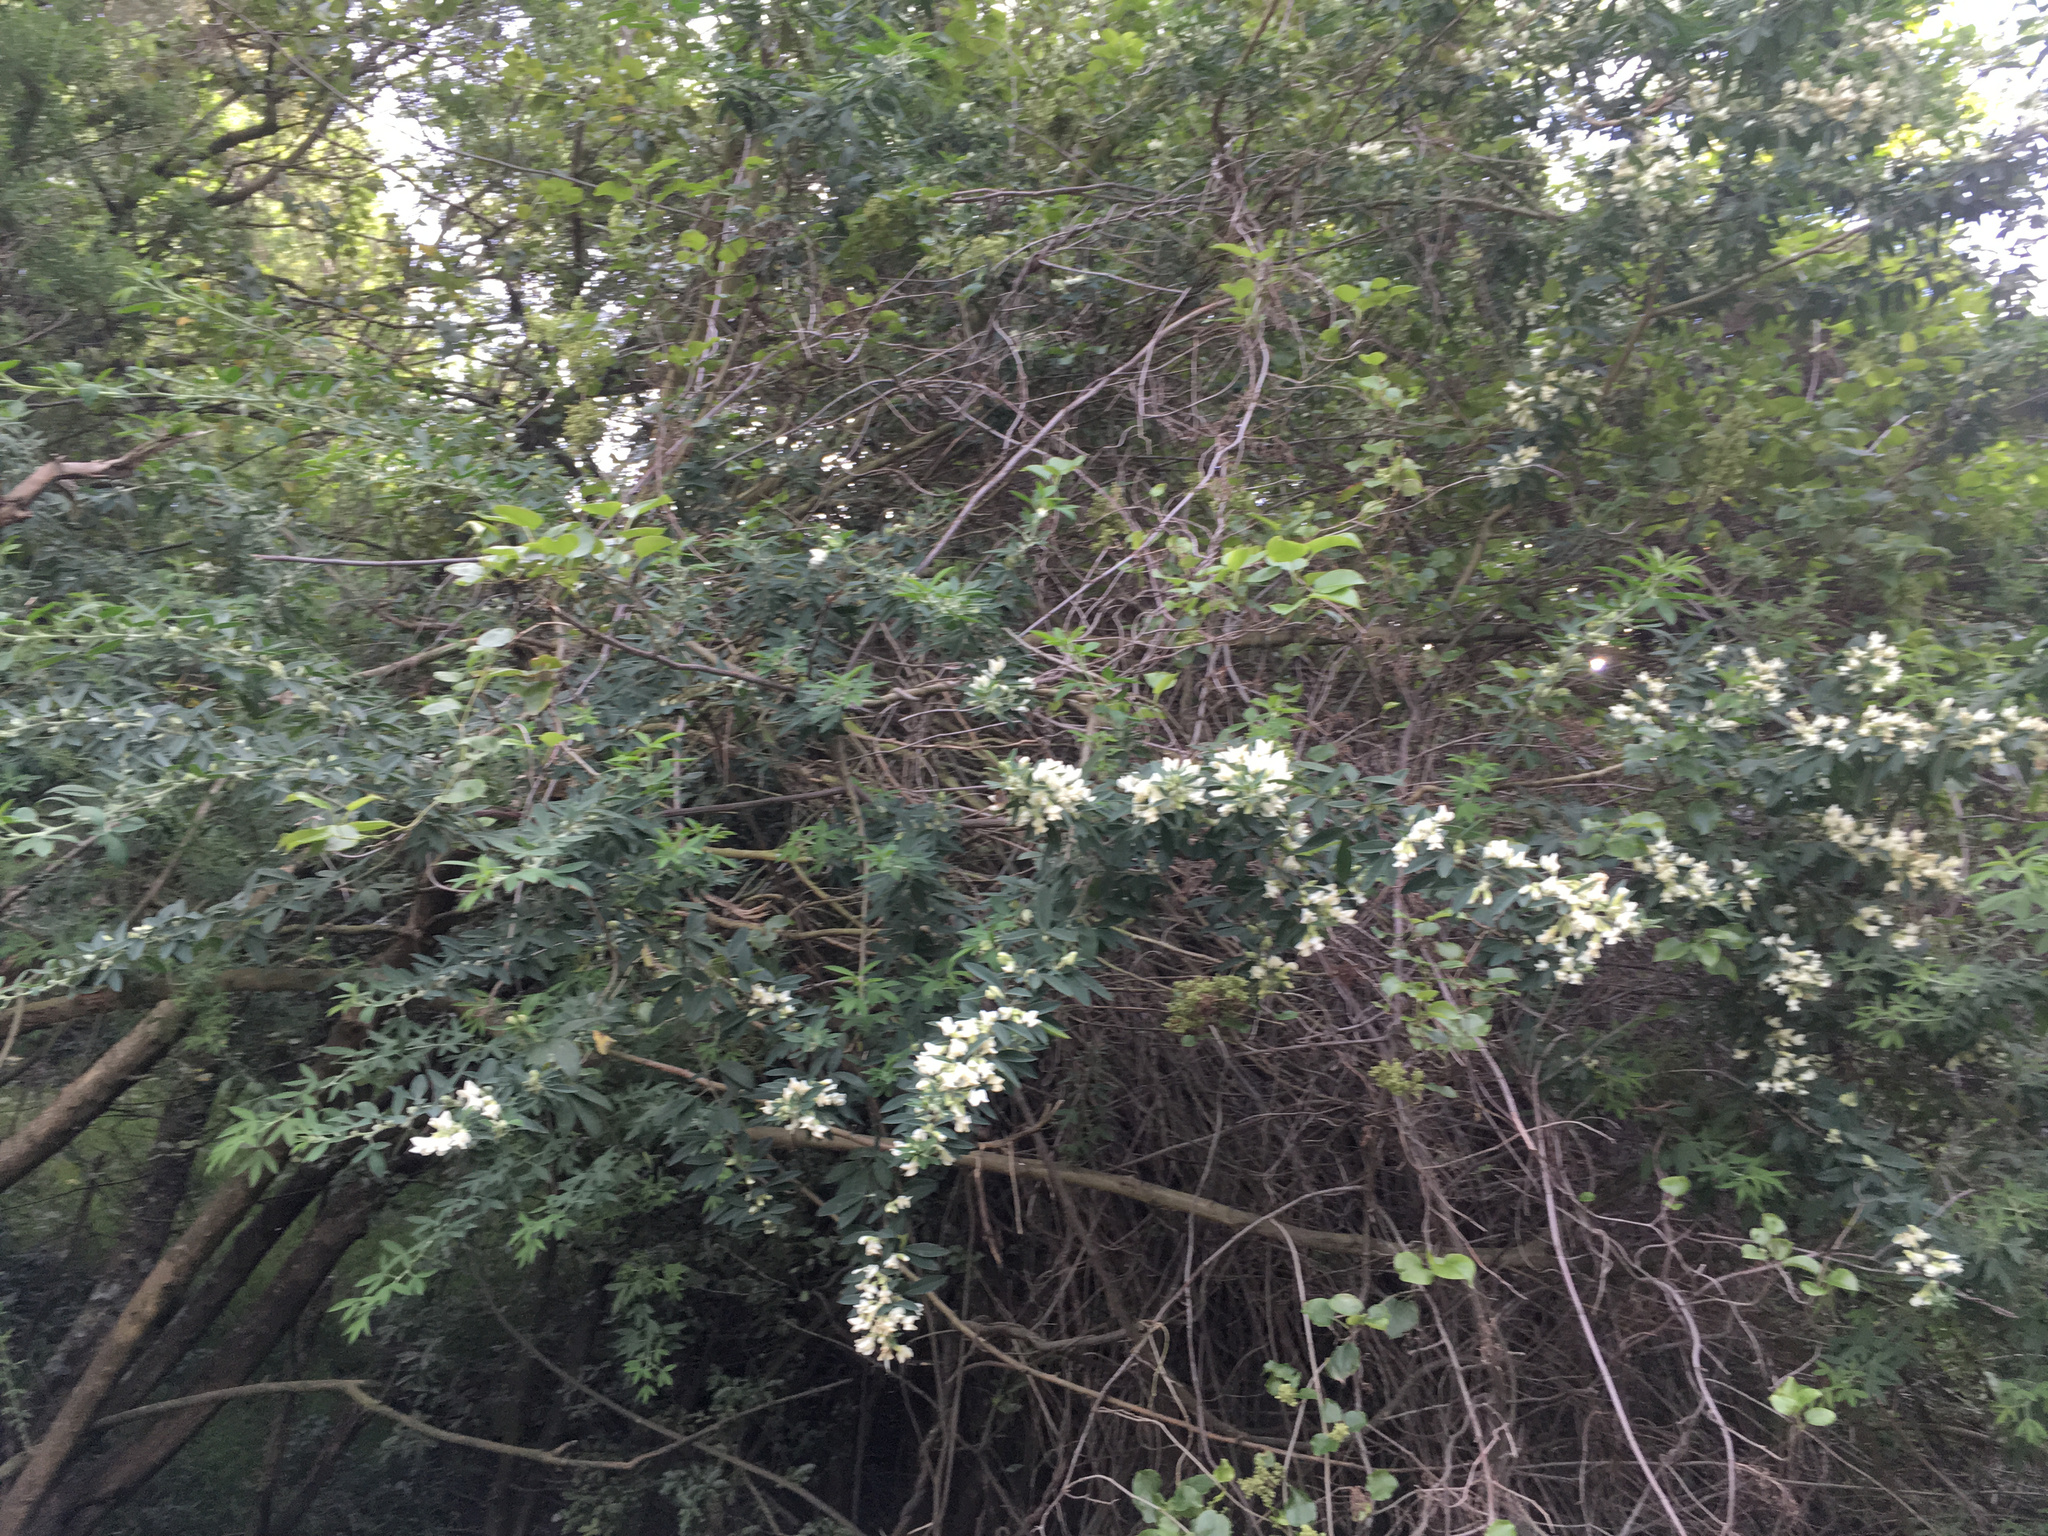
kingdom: Plantae
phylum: Tracheophyta
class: Magnoliopsida
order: Caryophyllales
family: Polygonaceae
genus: Muehlenbeckia
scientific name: Muehlenbeckia australis
